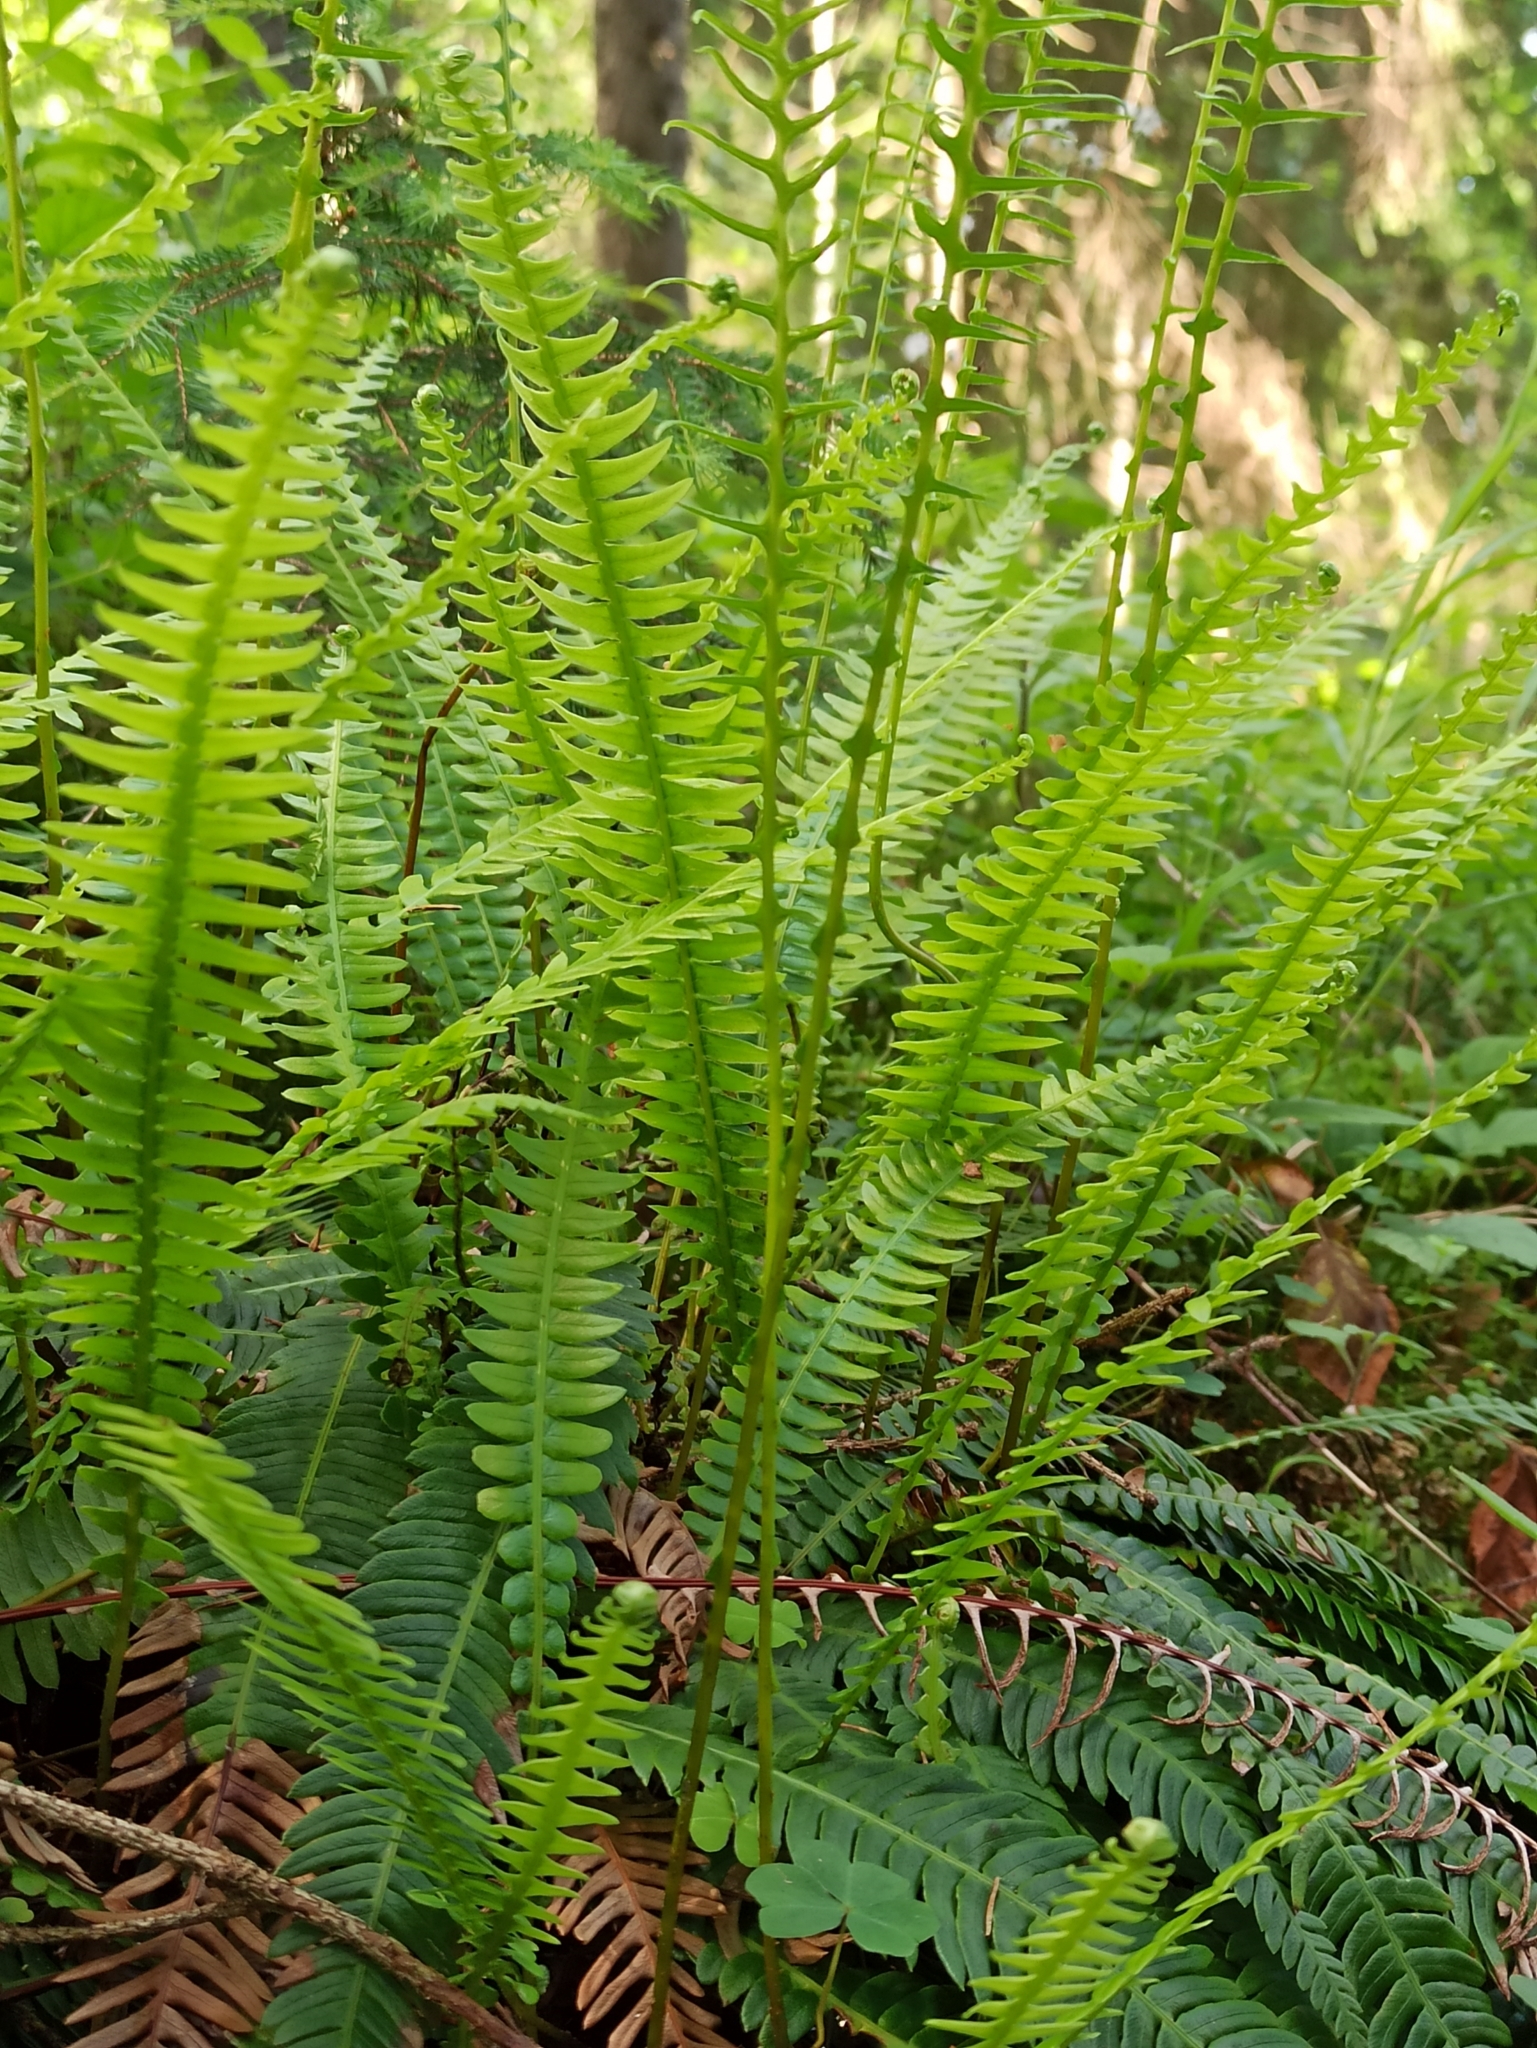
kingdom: Plantae
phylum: Tracheophyta
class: Polypodiopsida
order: Polypodiales
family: Blechnaceae
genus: Struthiopteris
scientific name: Struthiopteris spicant
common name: Deer fern
